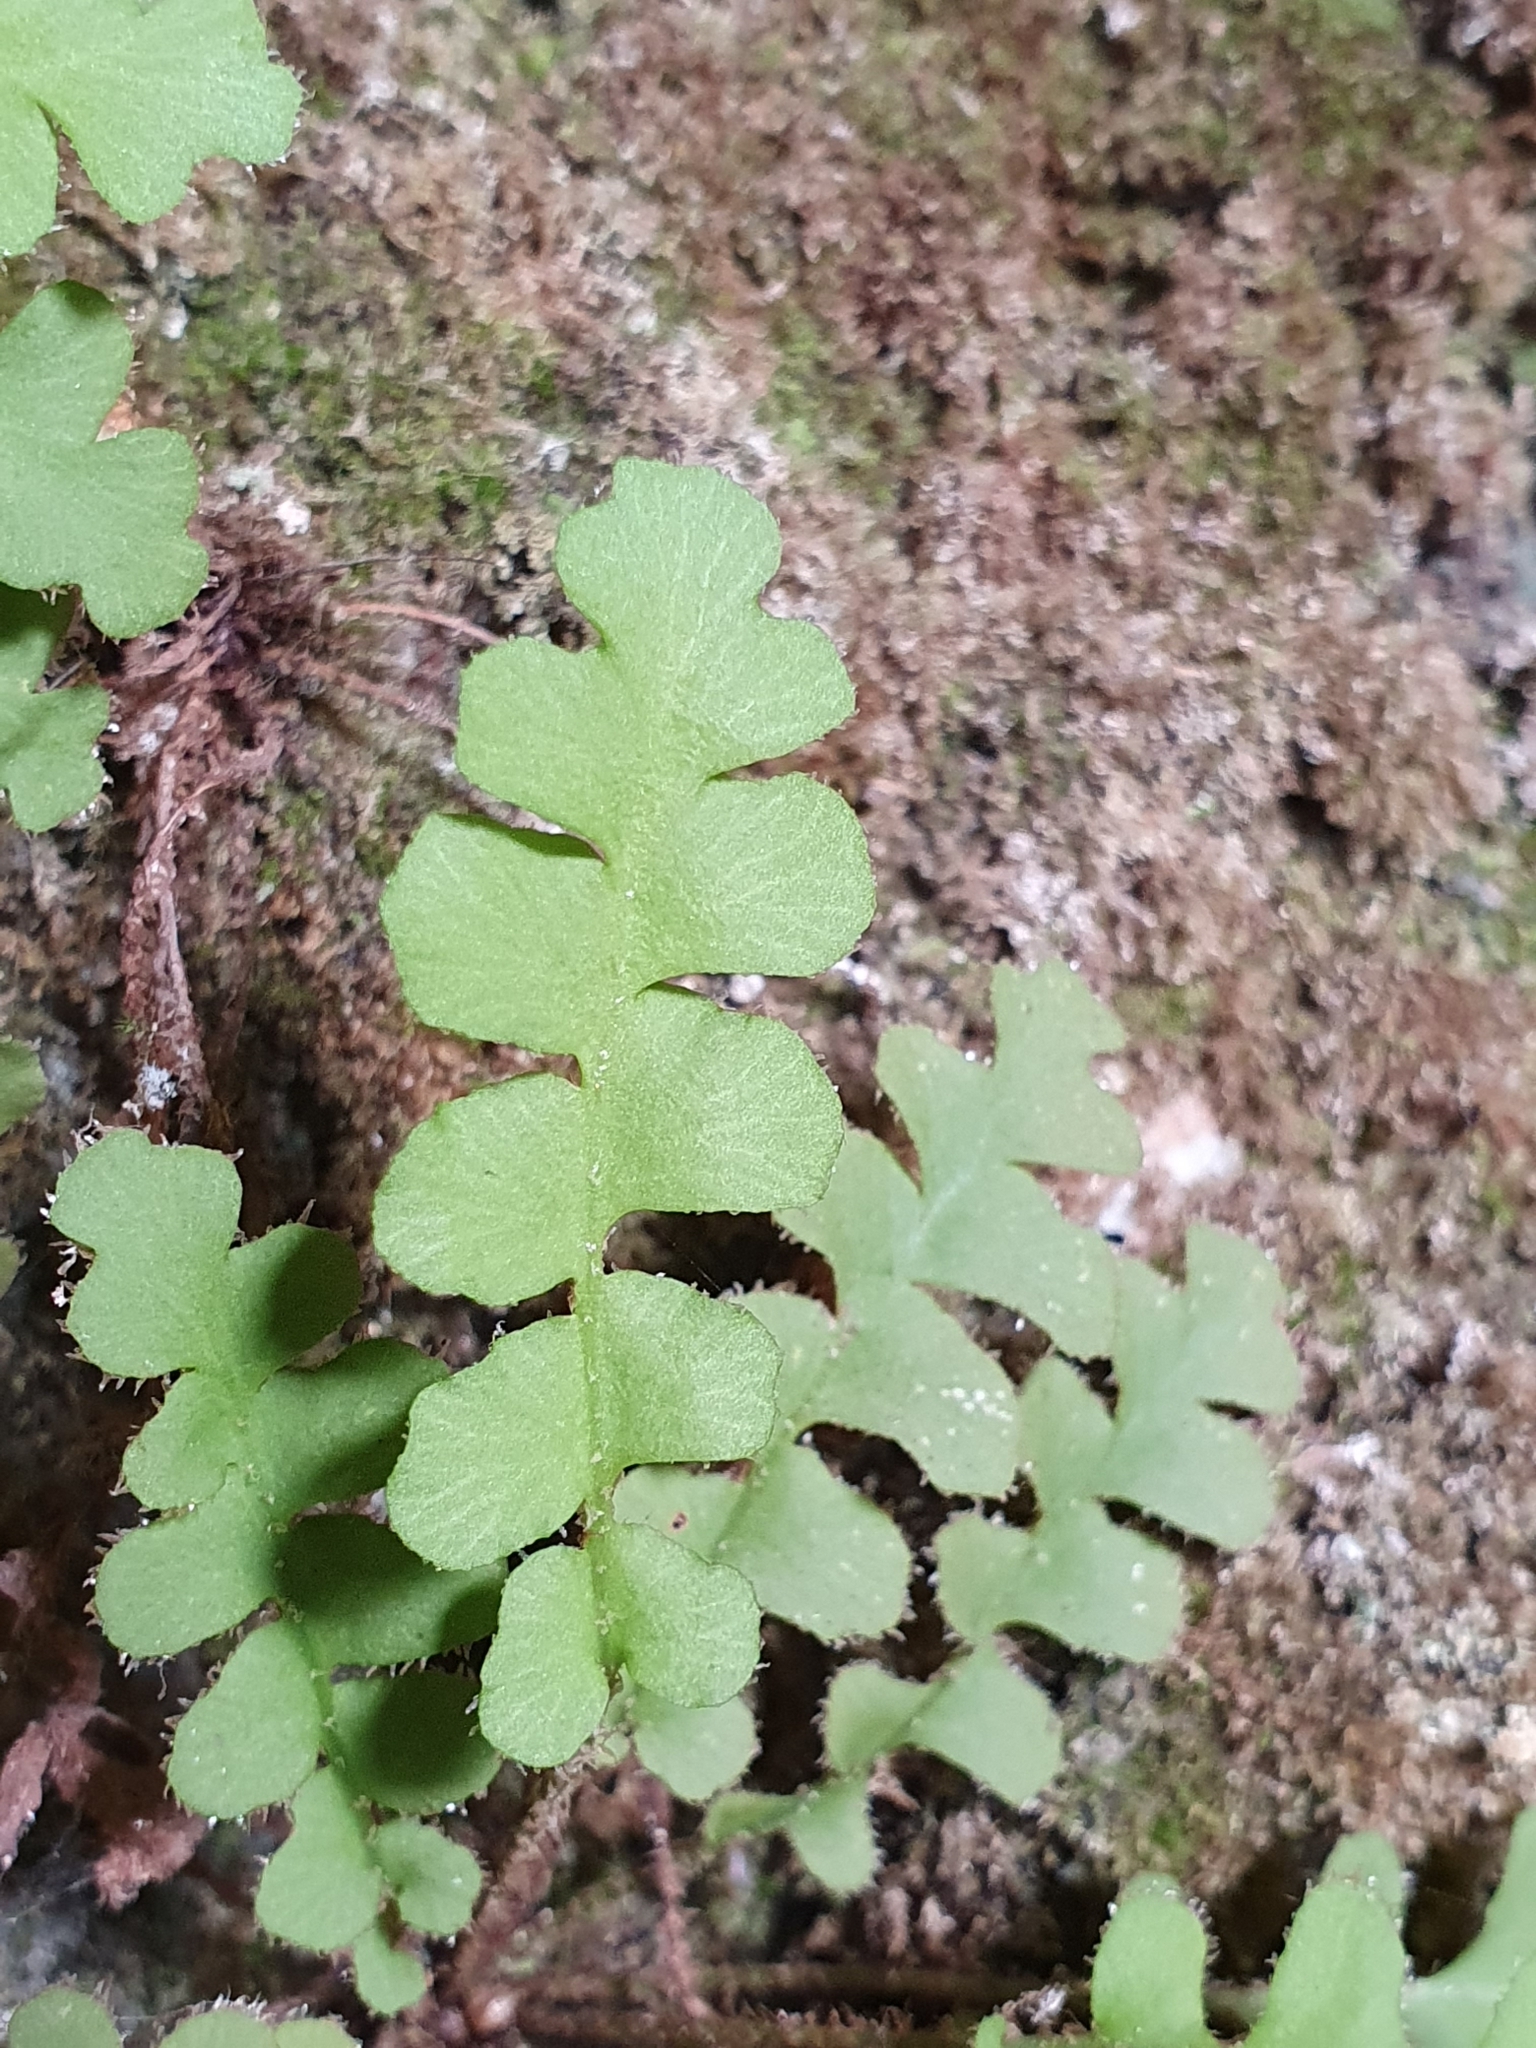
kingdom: Plantae
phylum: Tracheophyta
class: Polypodiopsida
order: Polypodiales
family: Aspleniaceae
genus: Asplenium
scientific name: Asplenium ceterach
